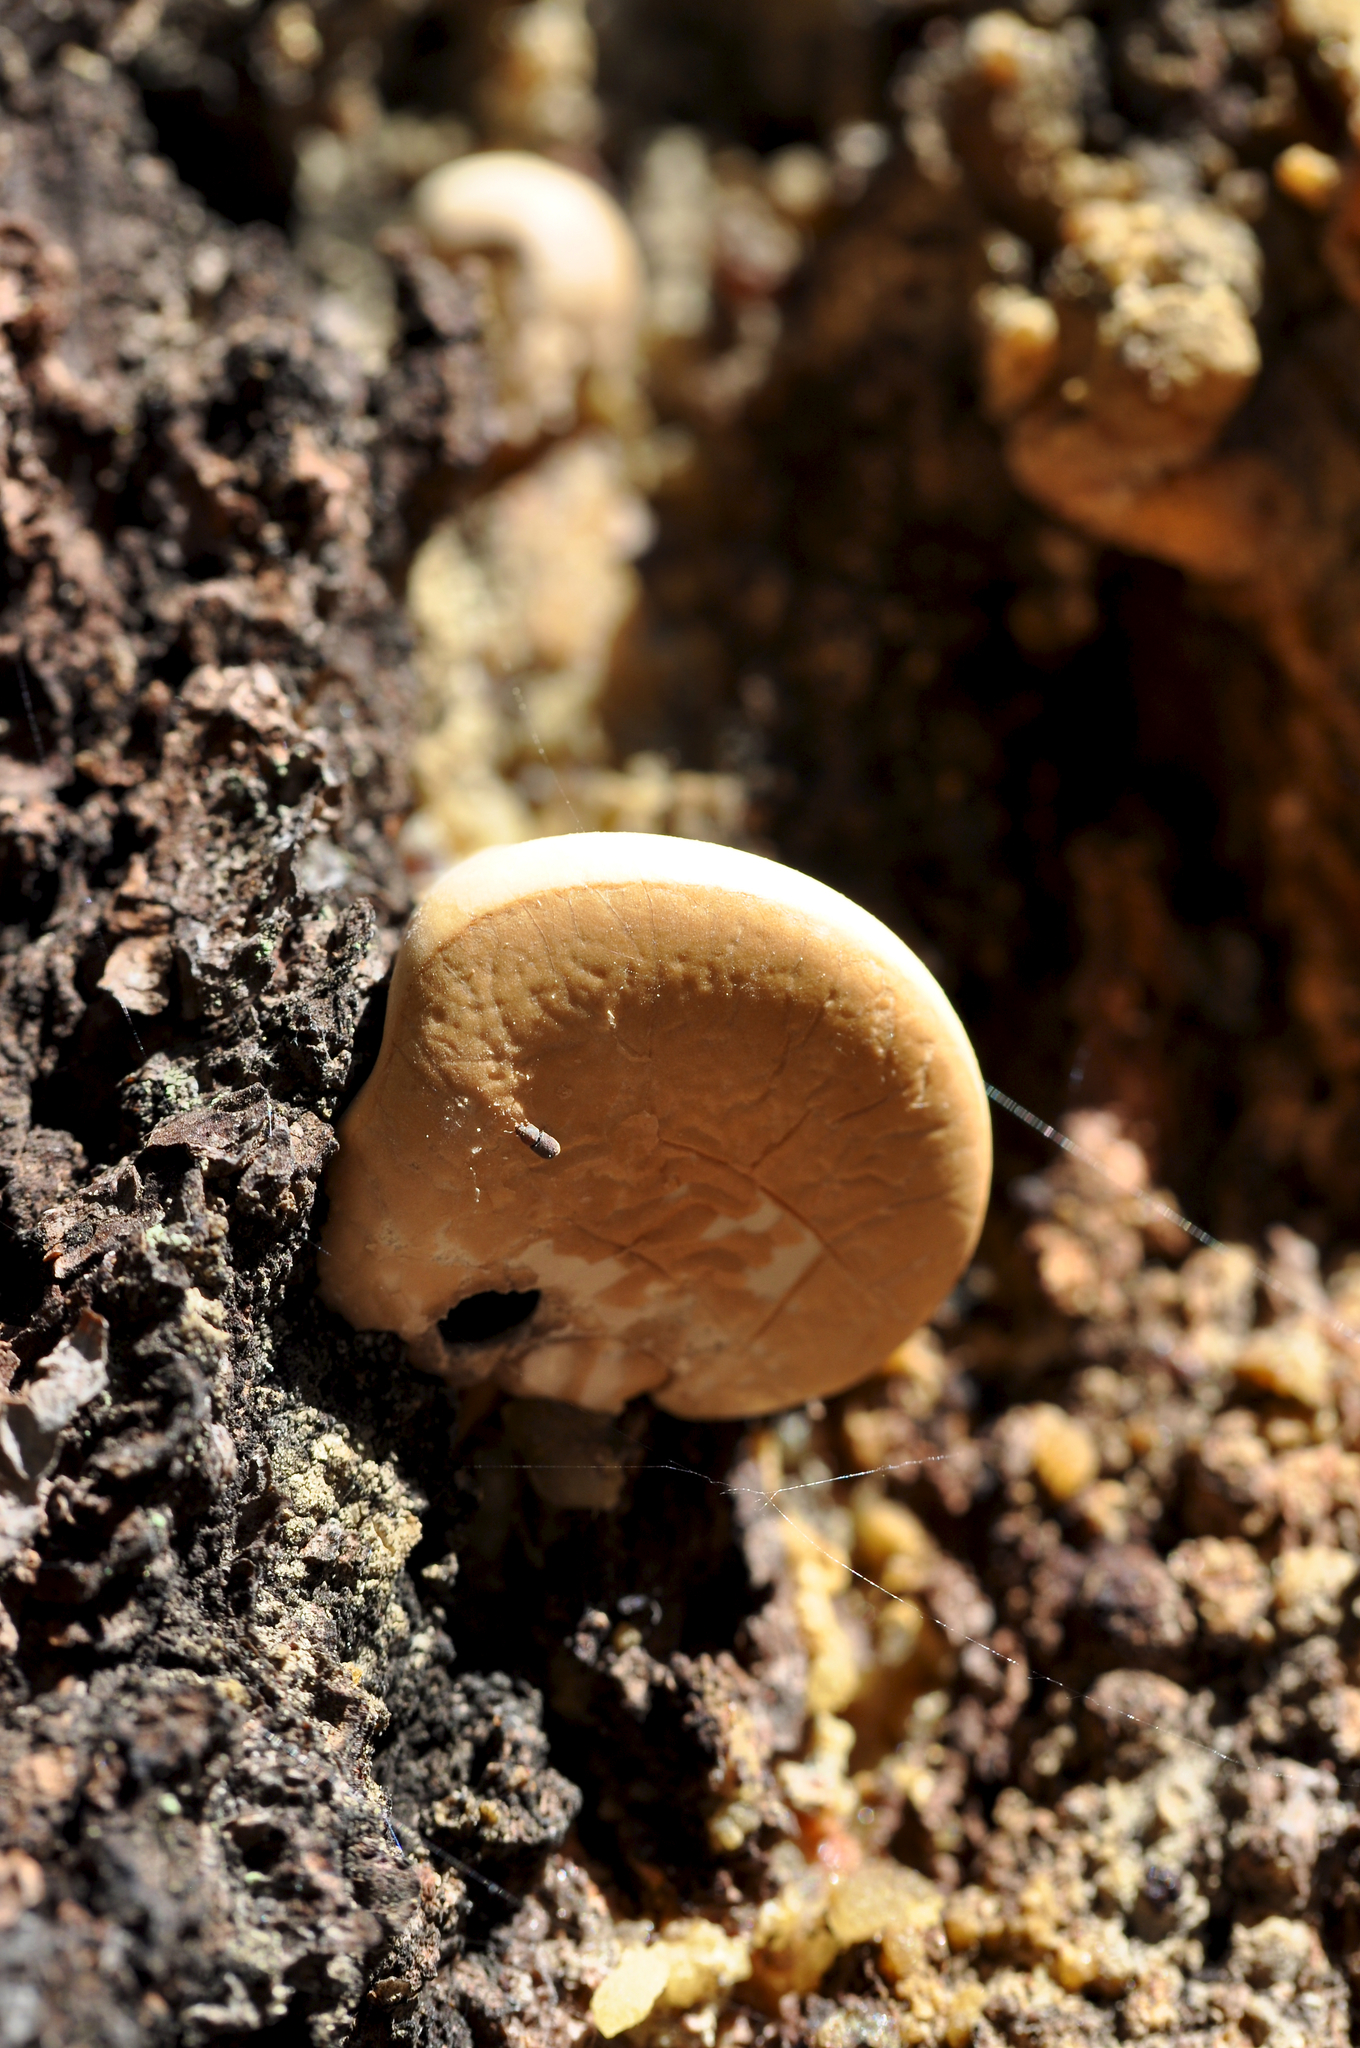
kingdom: Fungi
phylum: Basidiomycota
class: Agaricomycetes
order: Polyporales
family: Polyporaceae
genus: Cryptoporus
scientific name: Cryptoporus volvatus
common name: Veiled polypore
